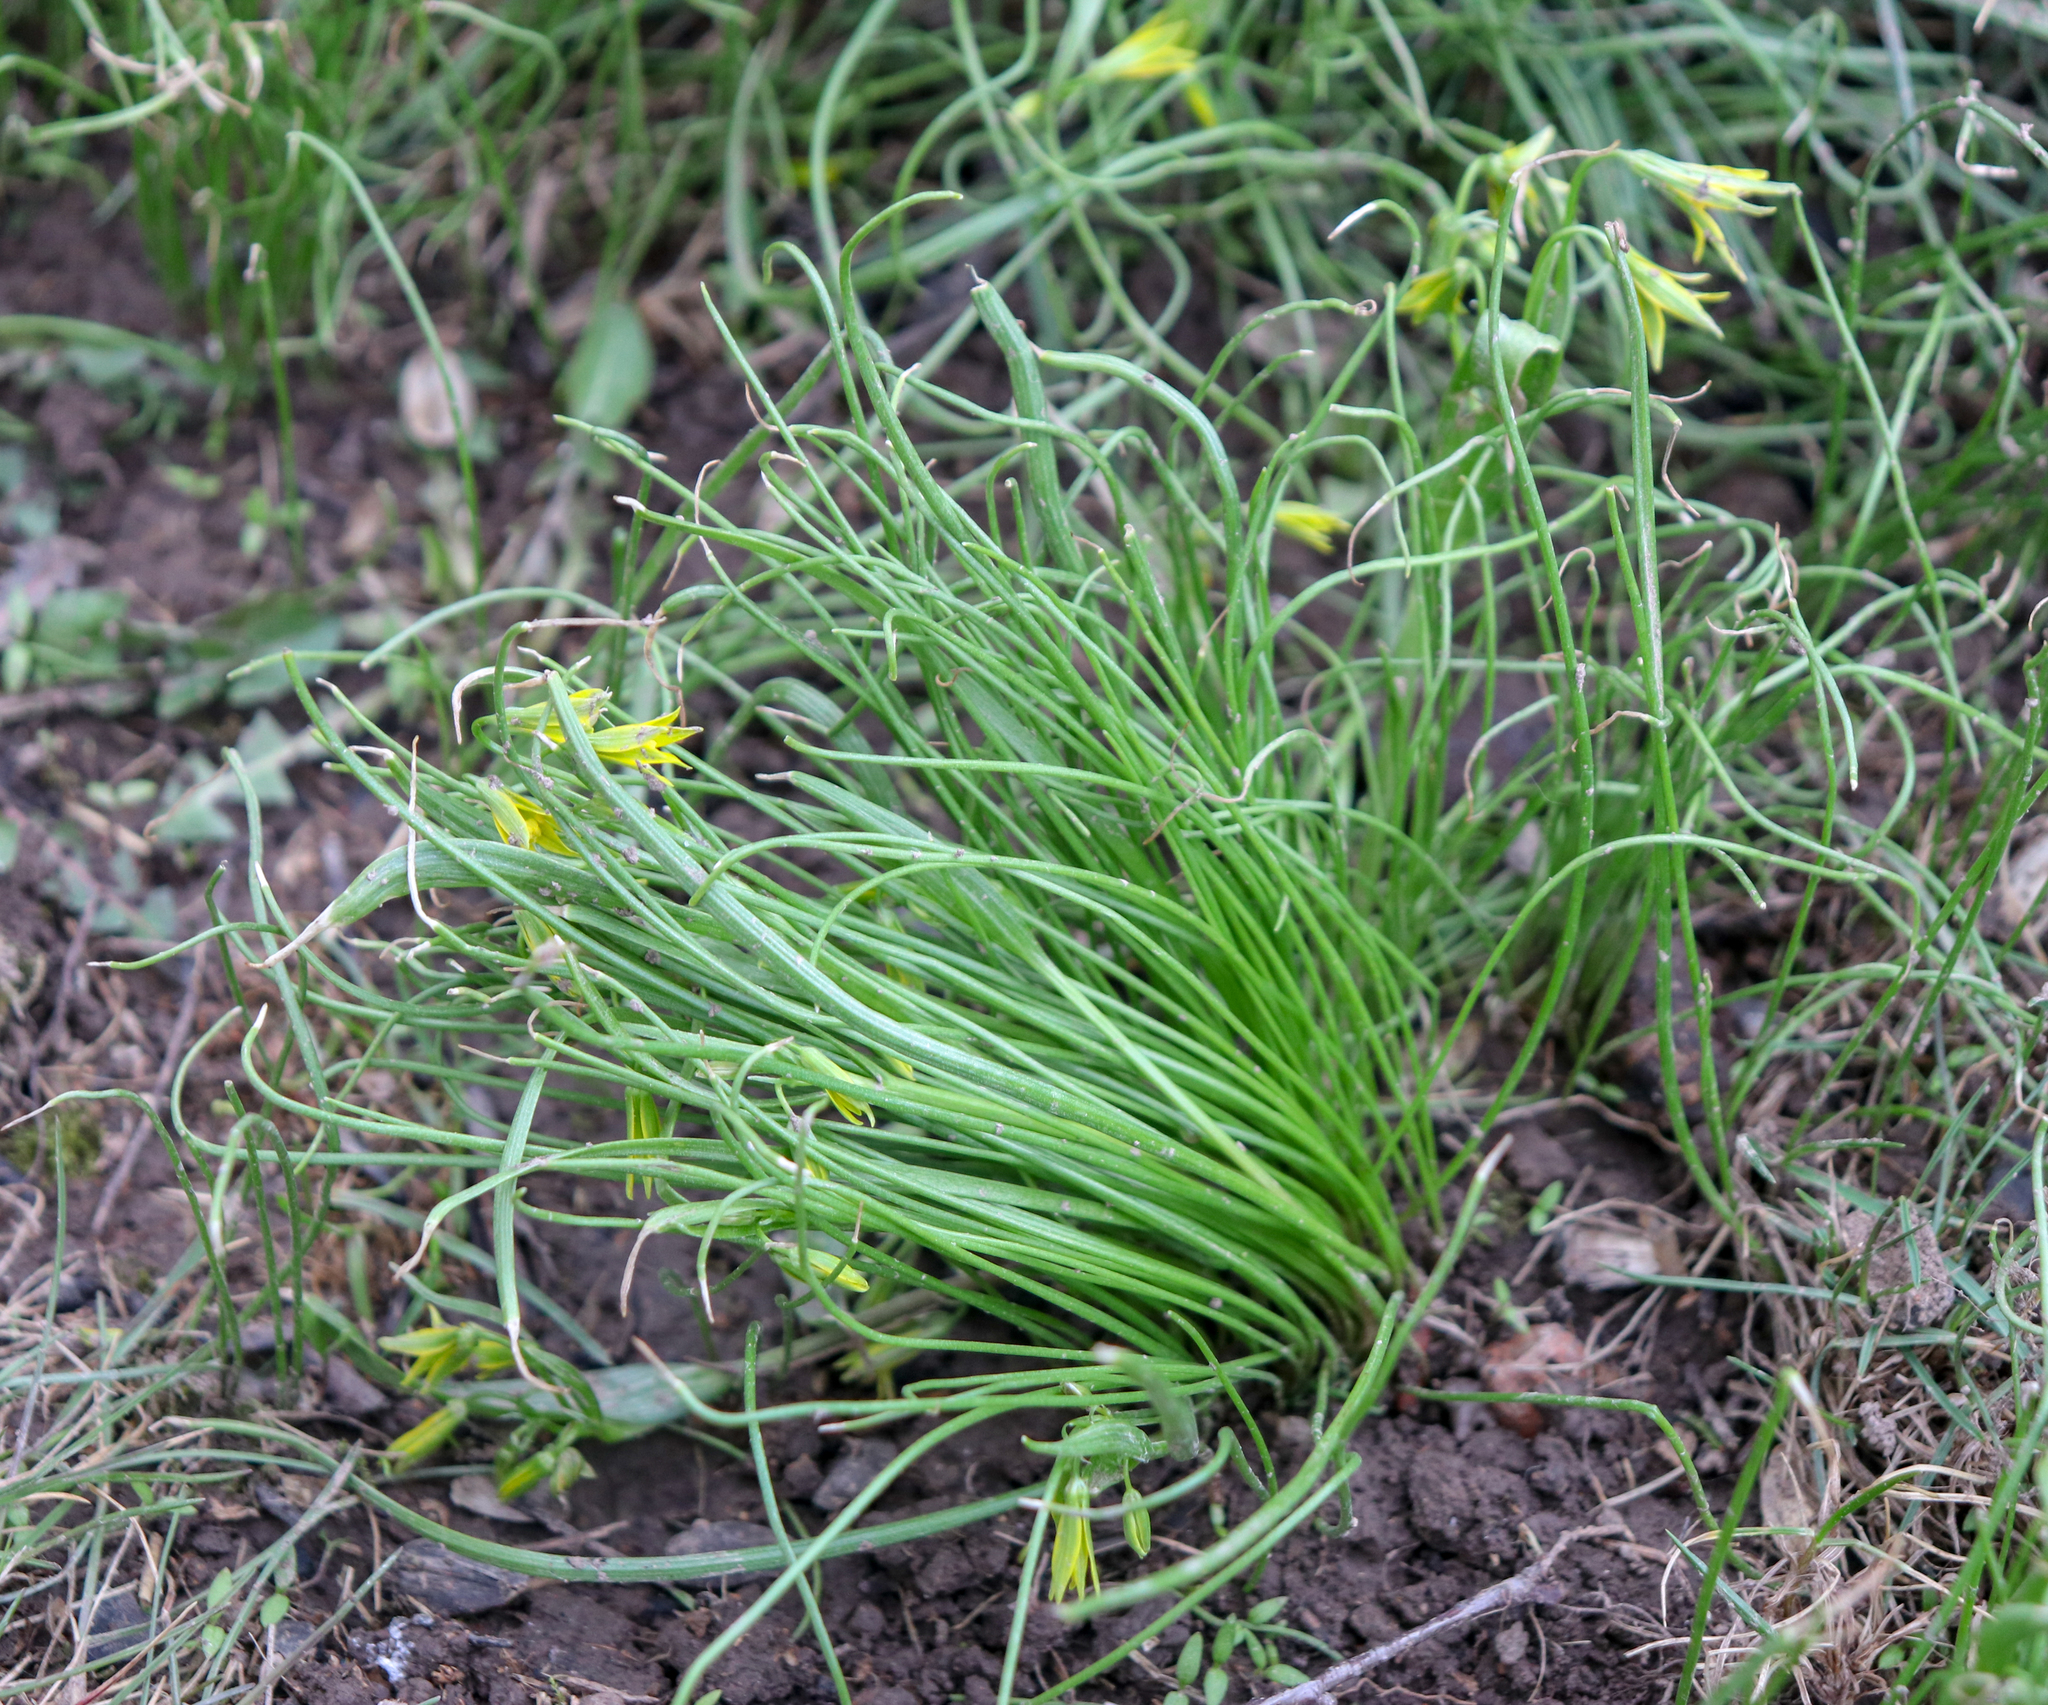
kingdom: Plantae
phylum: Tracheophyta
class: Liliopsida
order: Liliales
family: Liliaceae
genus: Gagea
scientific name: Gagea minima
